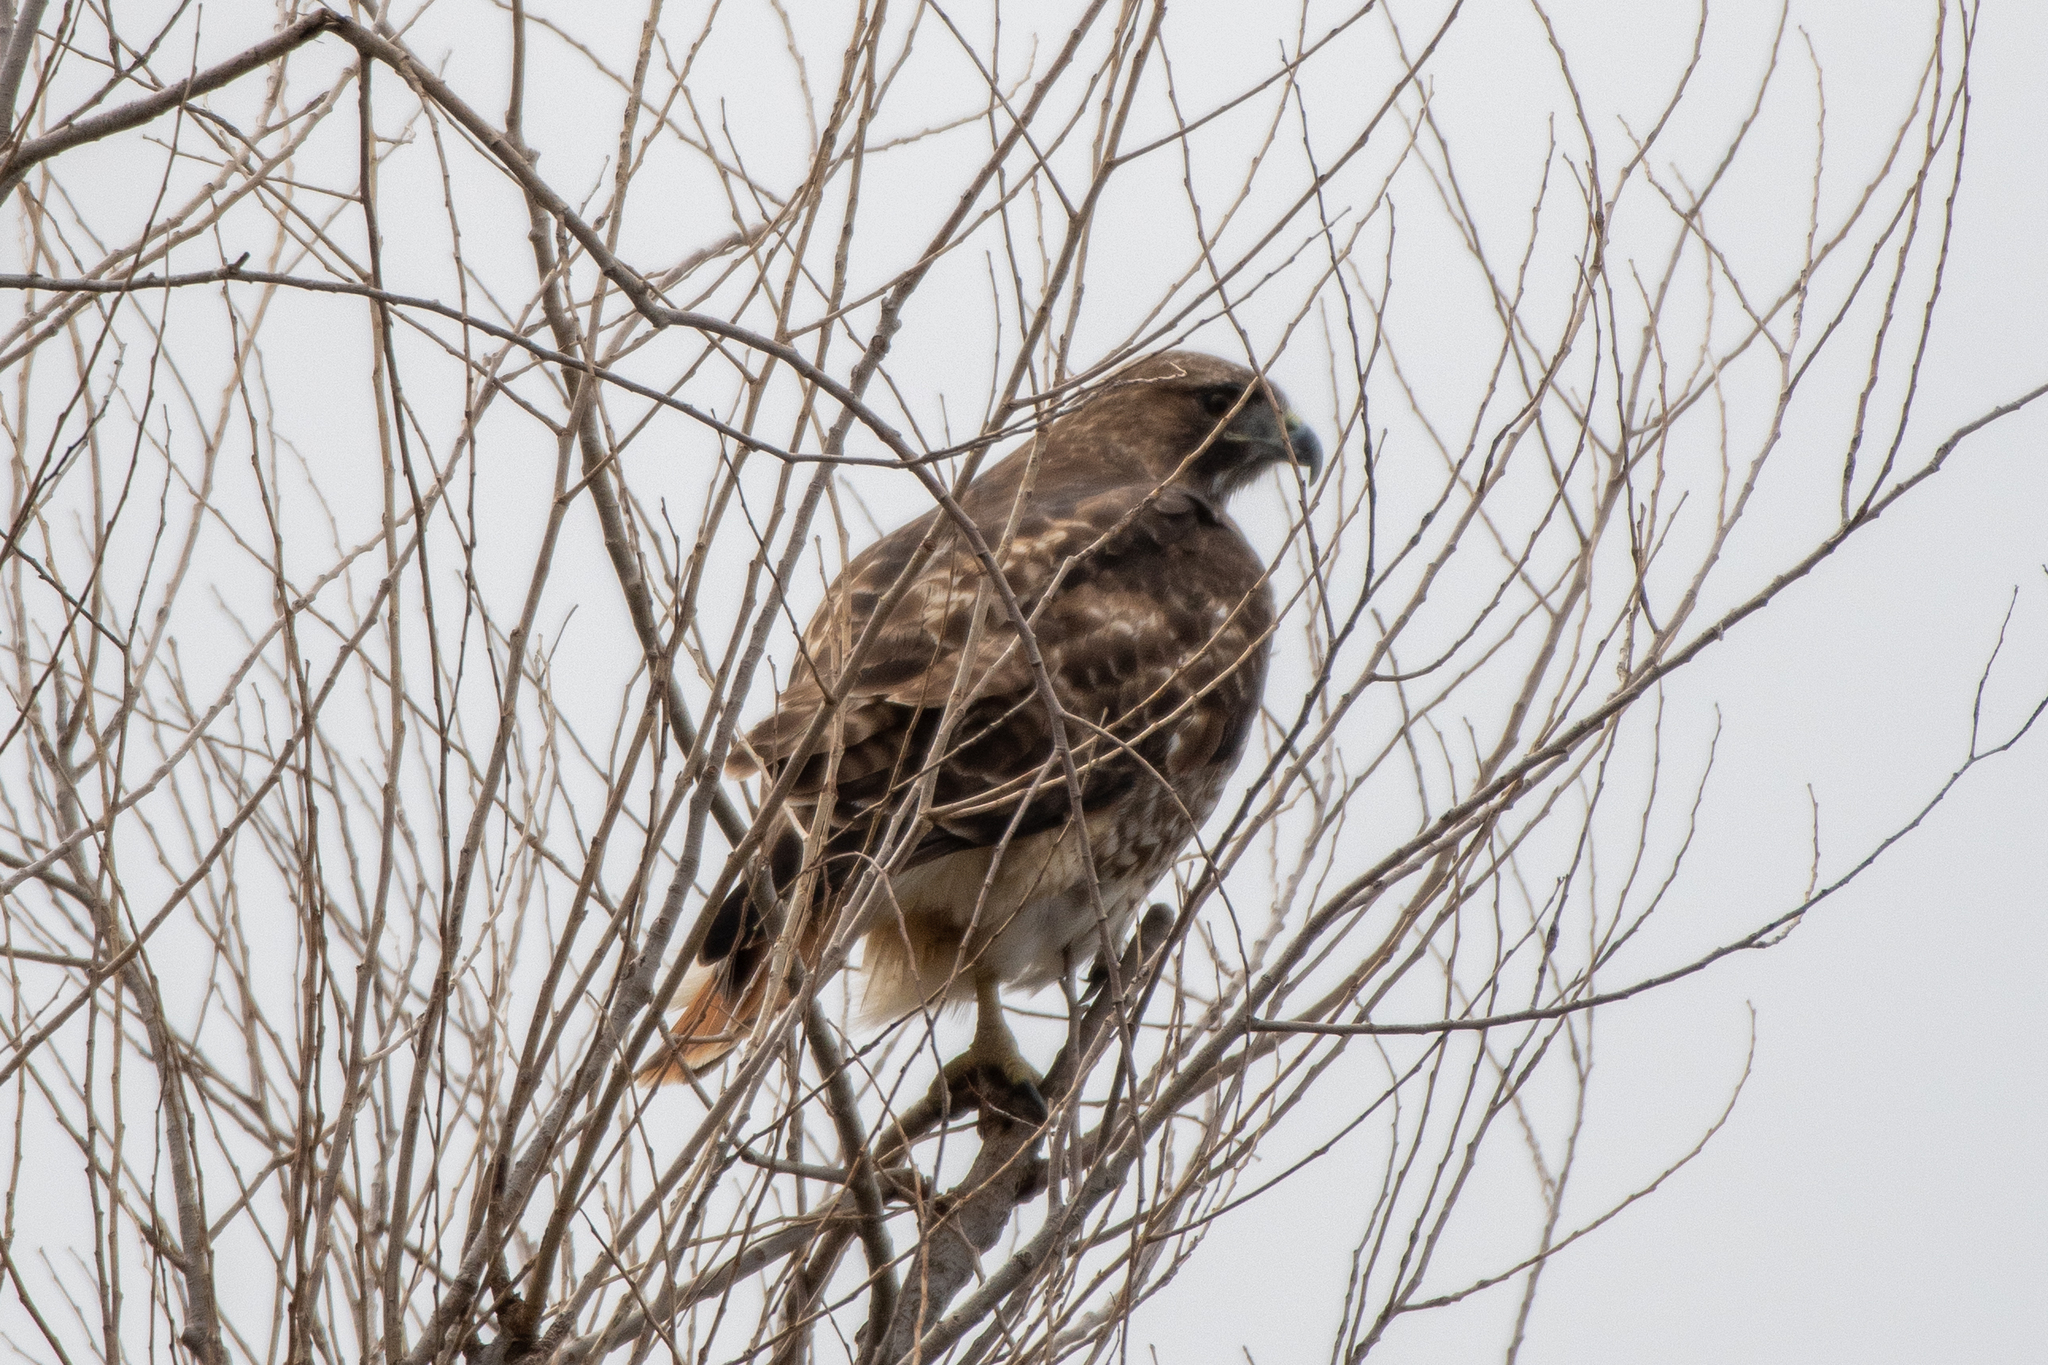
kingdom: Animalia
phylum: Chordata
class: Aves
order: Accipitriformes
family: Accipitridae
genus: Buteo
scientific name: Buteo jamaicensis
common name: Red-tailed hawk
